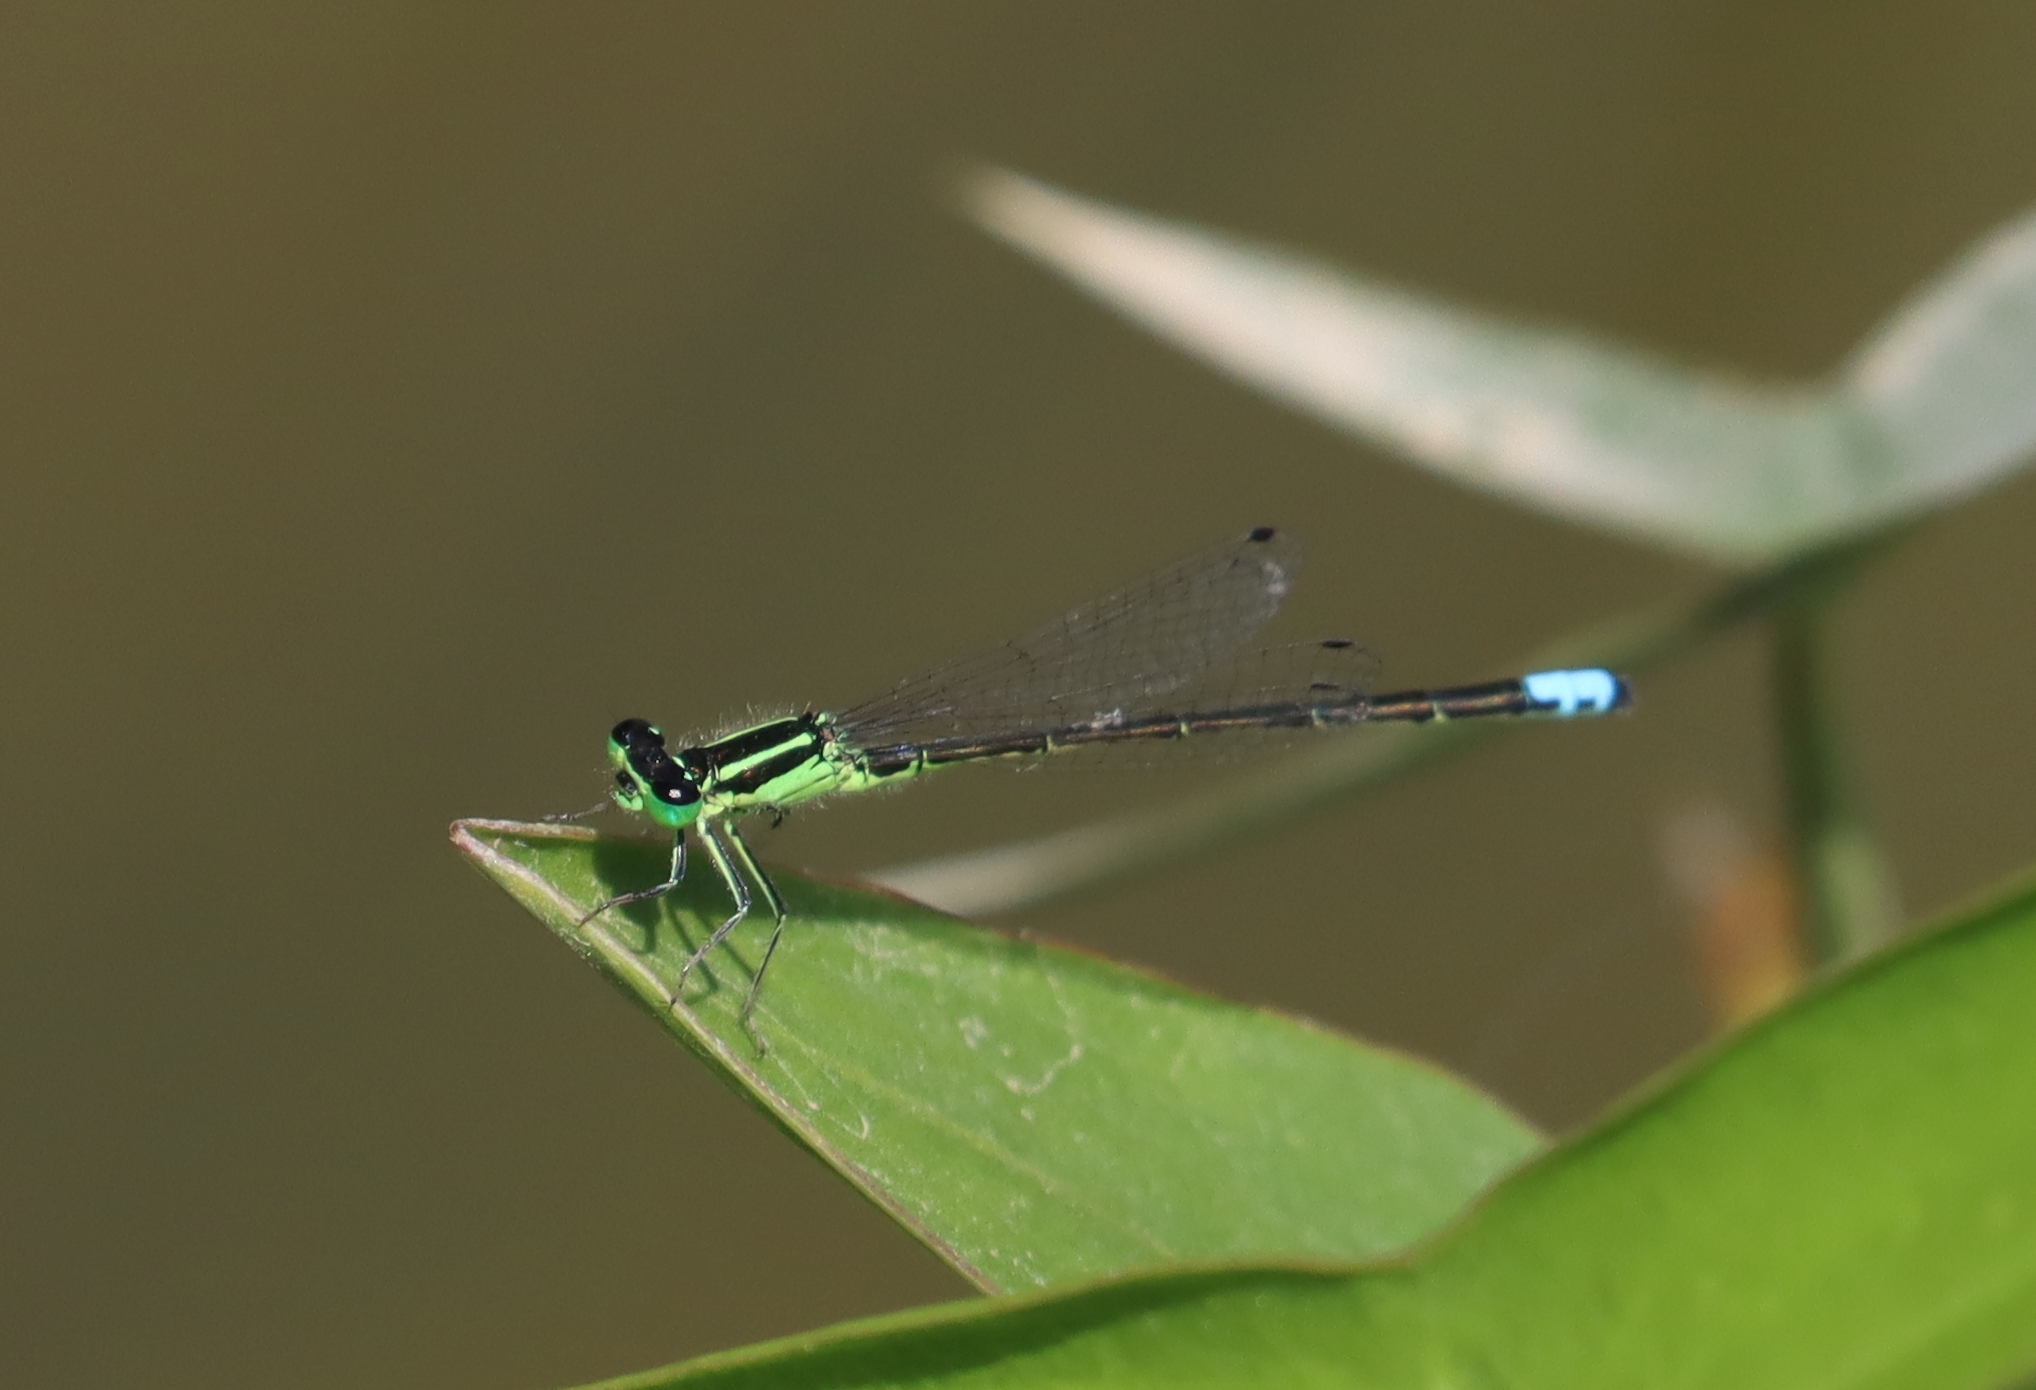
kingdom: Animalia
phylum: Arthropoda
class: Insecta
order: Odonata
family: Coenagrionidae
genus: Ischnura
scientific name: Ischnura verticalis
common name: Eastern forktail
